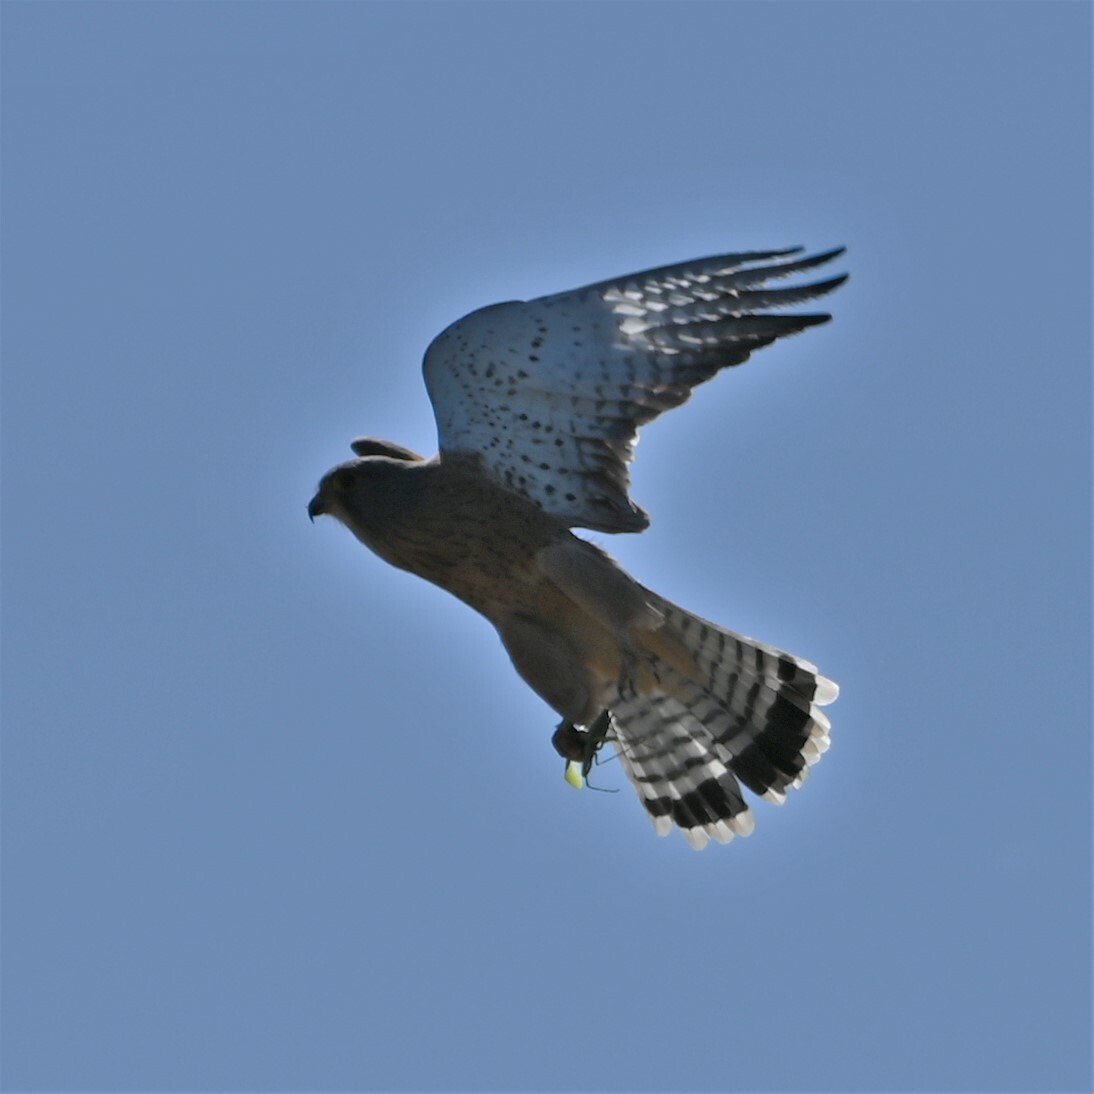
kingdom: Animalia
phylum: Chordata
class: Aves
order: Falconiformes
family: Falconidae
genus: Falco
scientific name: Falco rupicolus
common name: Rock kestrel
